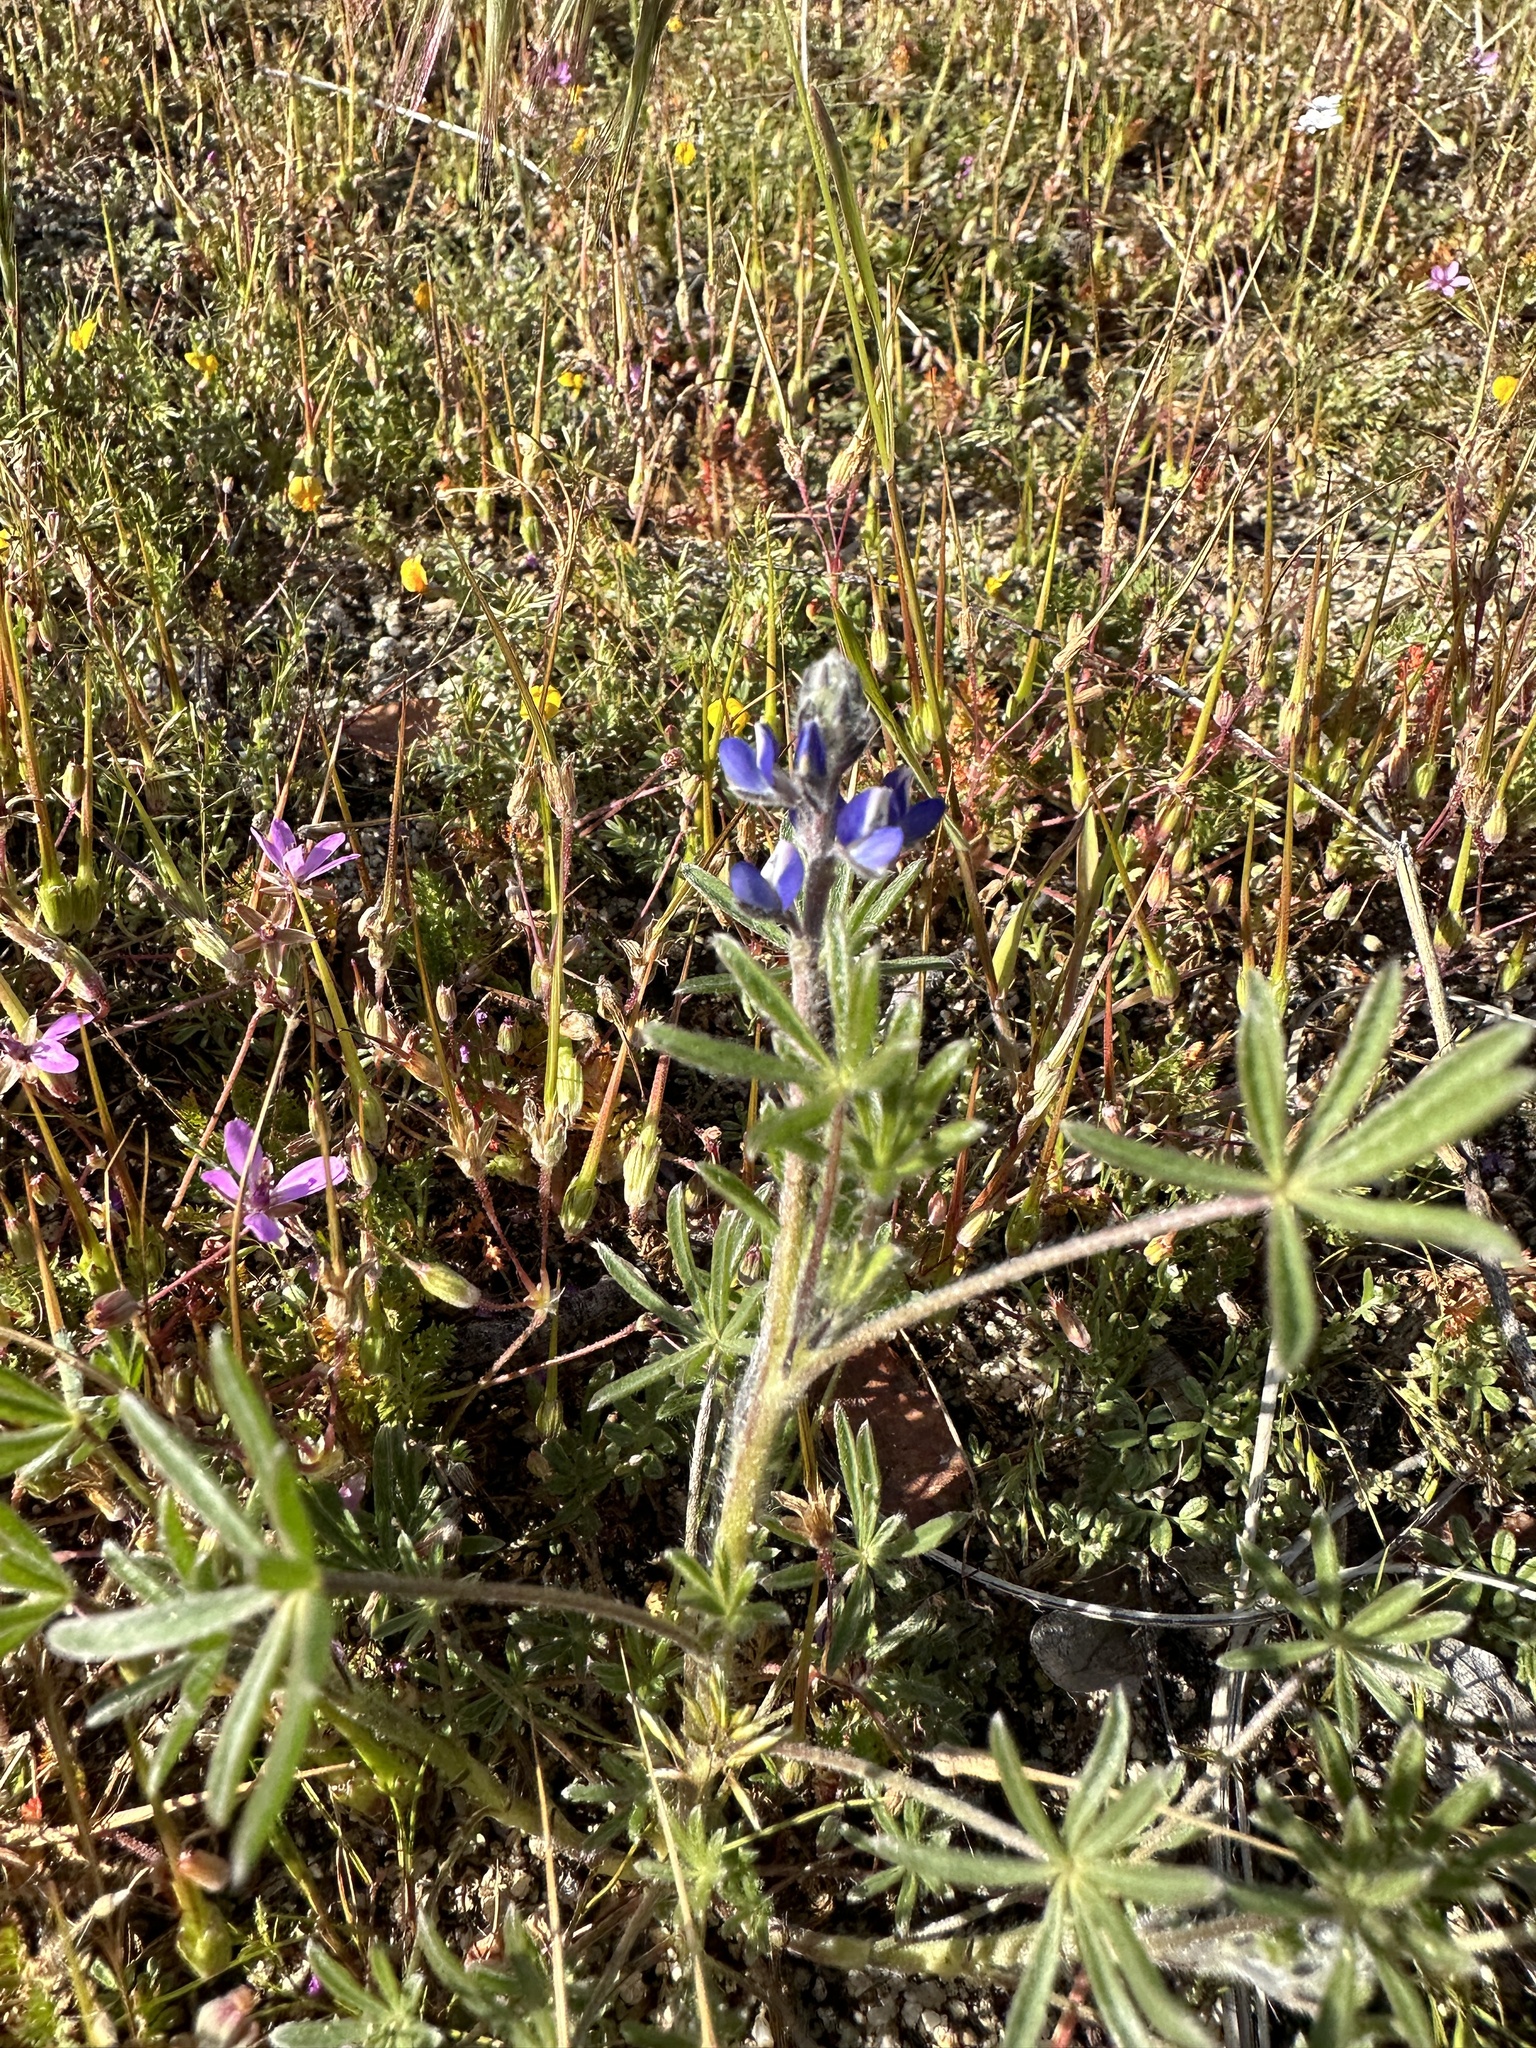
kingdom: Plantae
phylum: Tracheophyta
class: Magnoliopsida
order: Fabales
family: Fabaceae
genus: Lupinus
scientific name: Lupinus bicolor
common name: Miniature lupine
